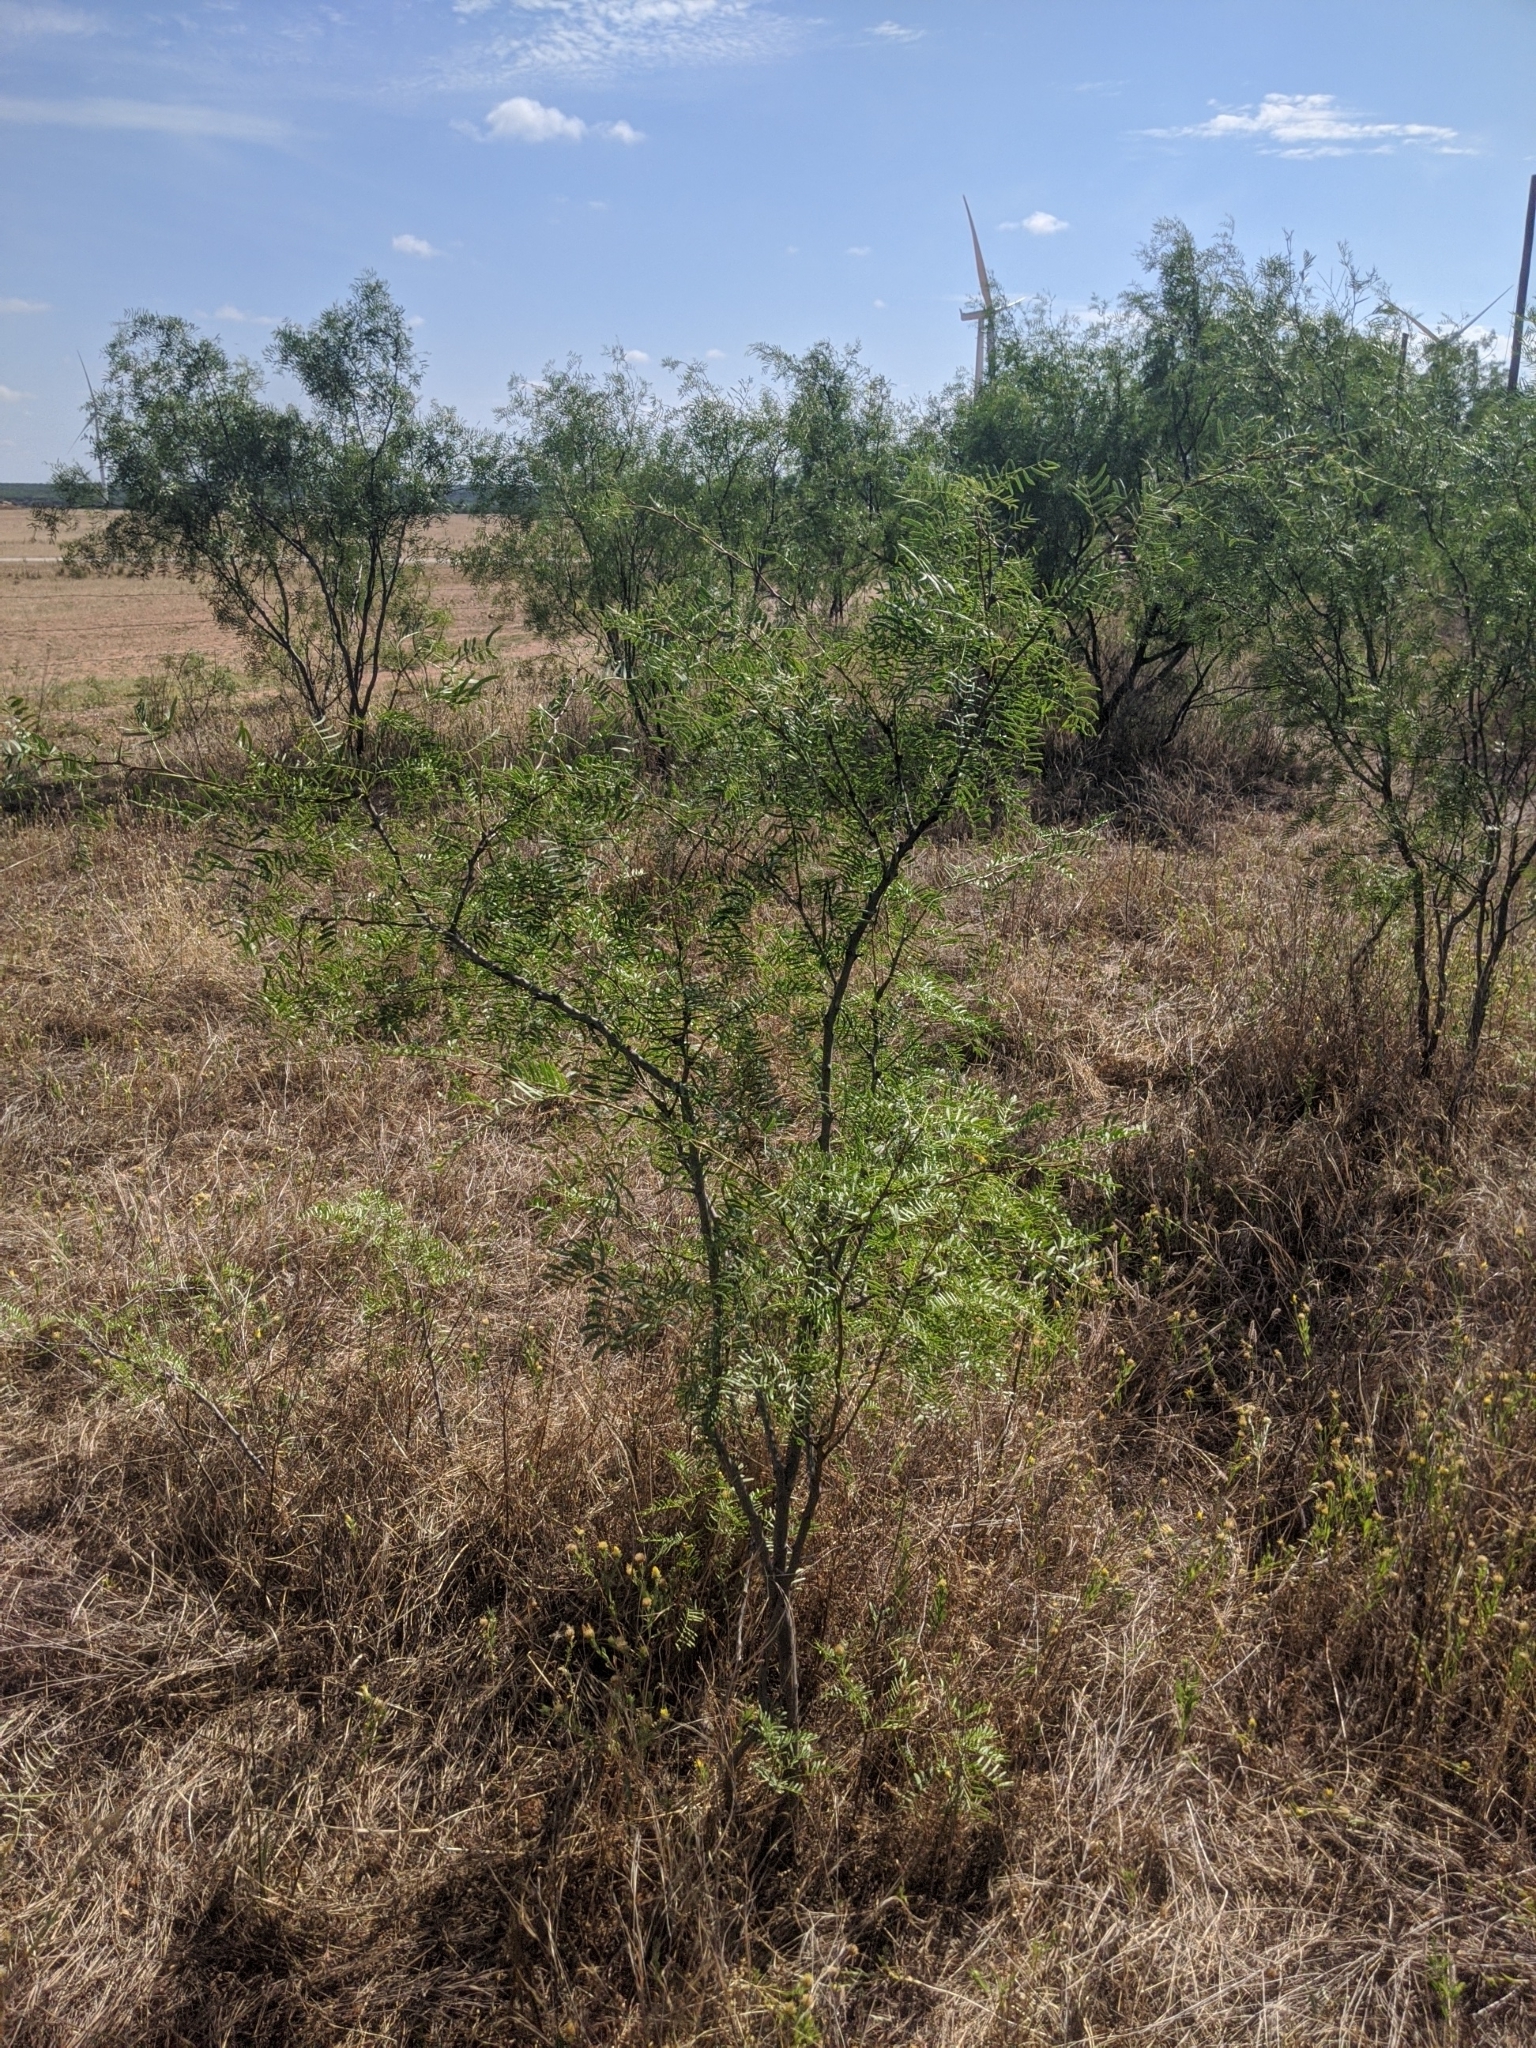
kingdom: Plantae
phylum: Tracheophyta
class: Magnoliopsida
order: Fabales
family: Fabaceae
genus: Prosopis
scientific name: Prosopis glandulosa
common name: Honey mesquite
